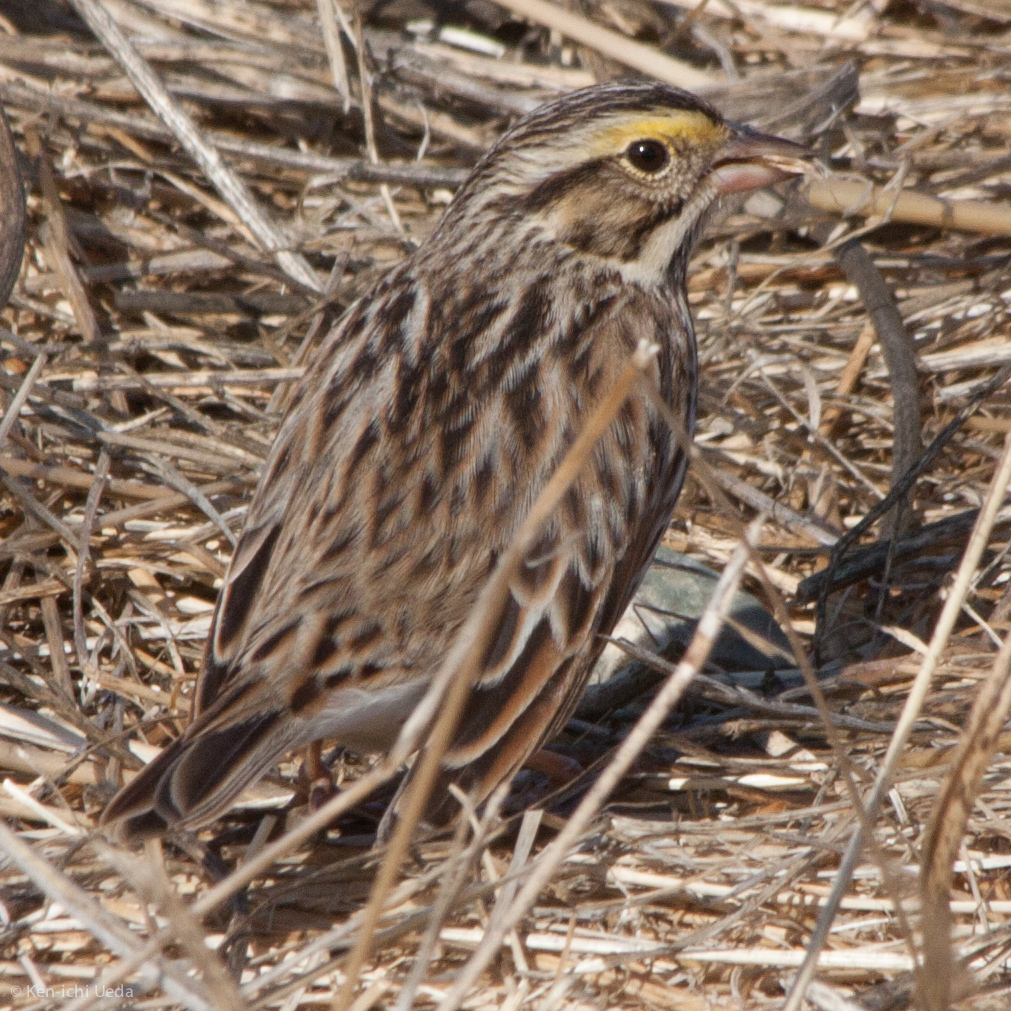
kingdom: Animalia
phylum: Chordata
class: Aves
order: Passeriformes
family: Passerellidae
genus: Passerculus
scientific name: Passerculus sandwichensis
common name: Savannah sparrow
